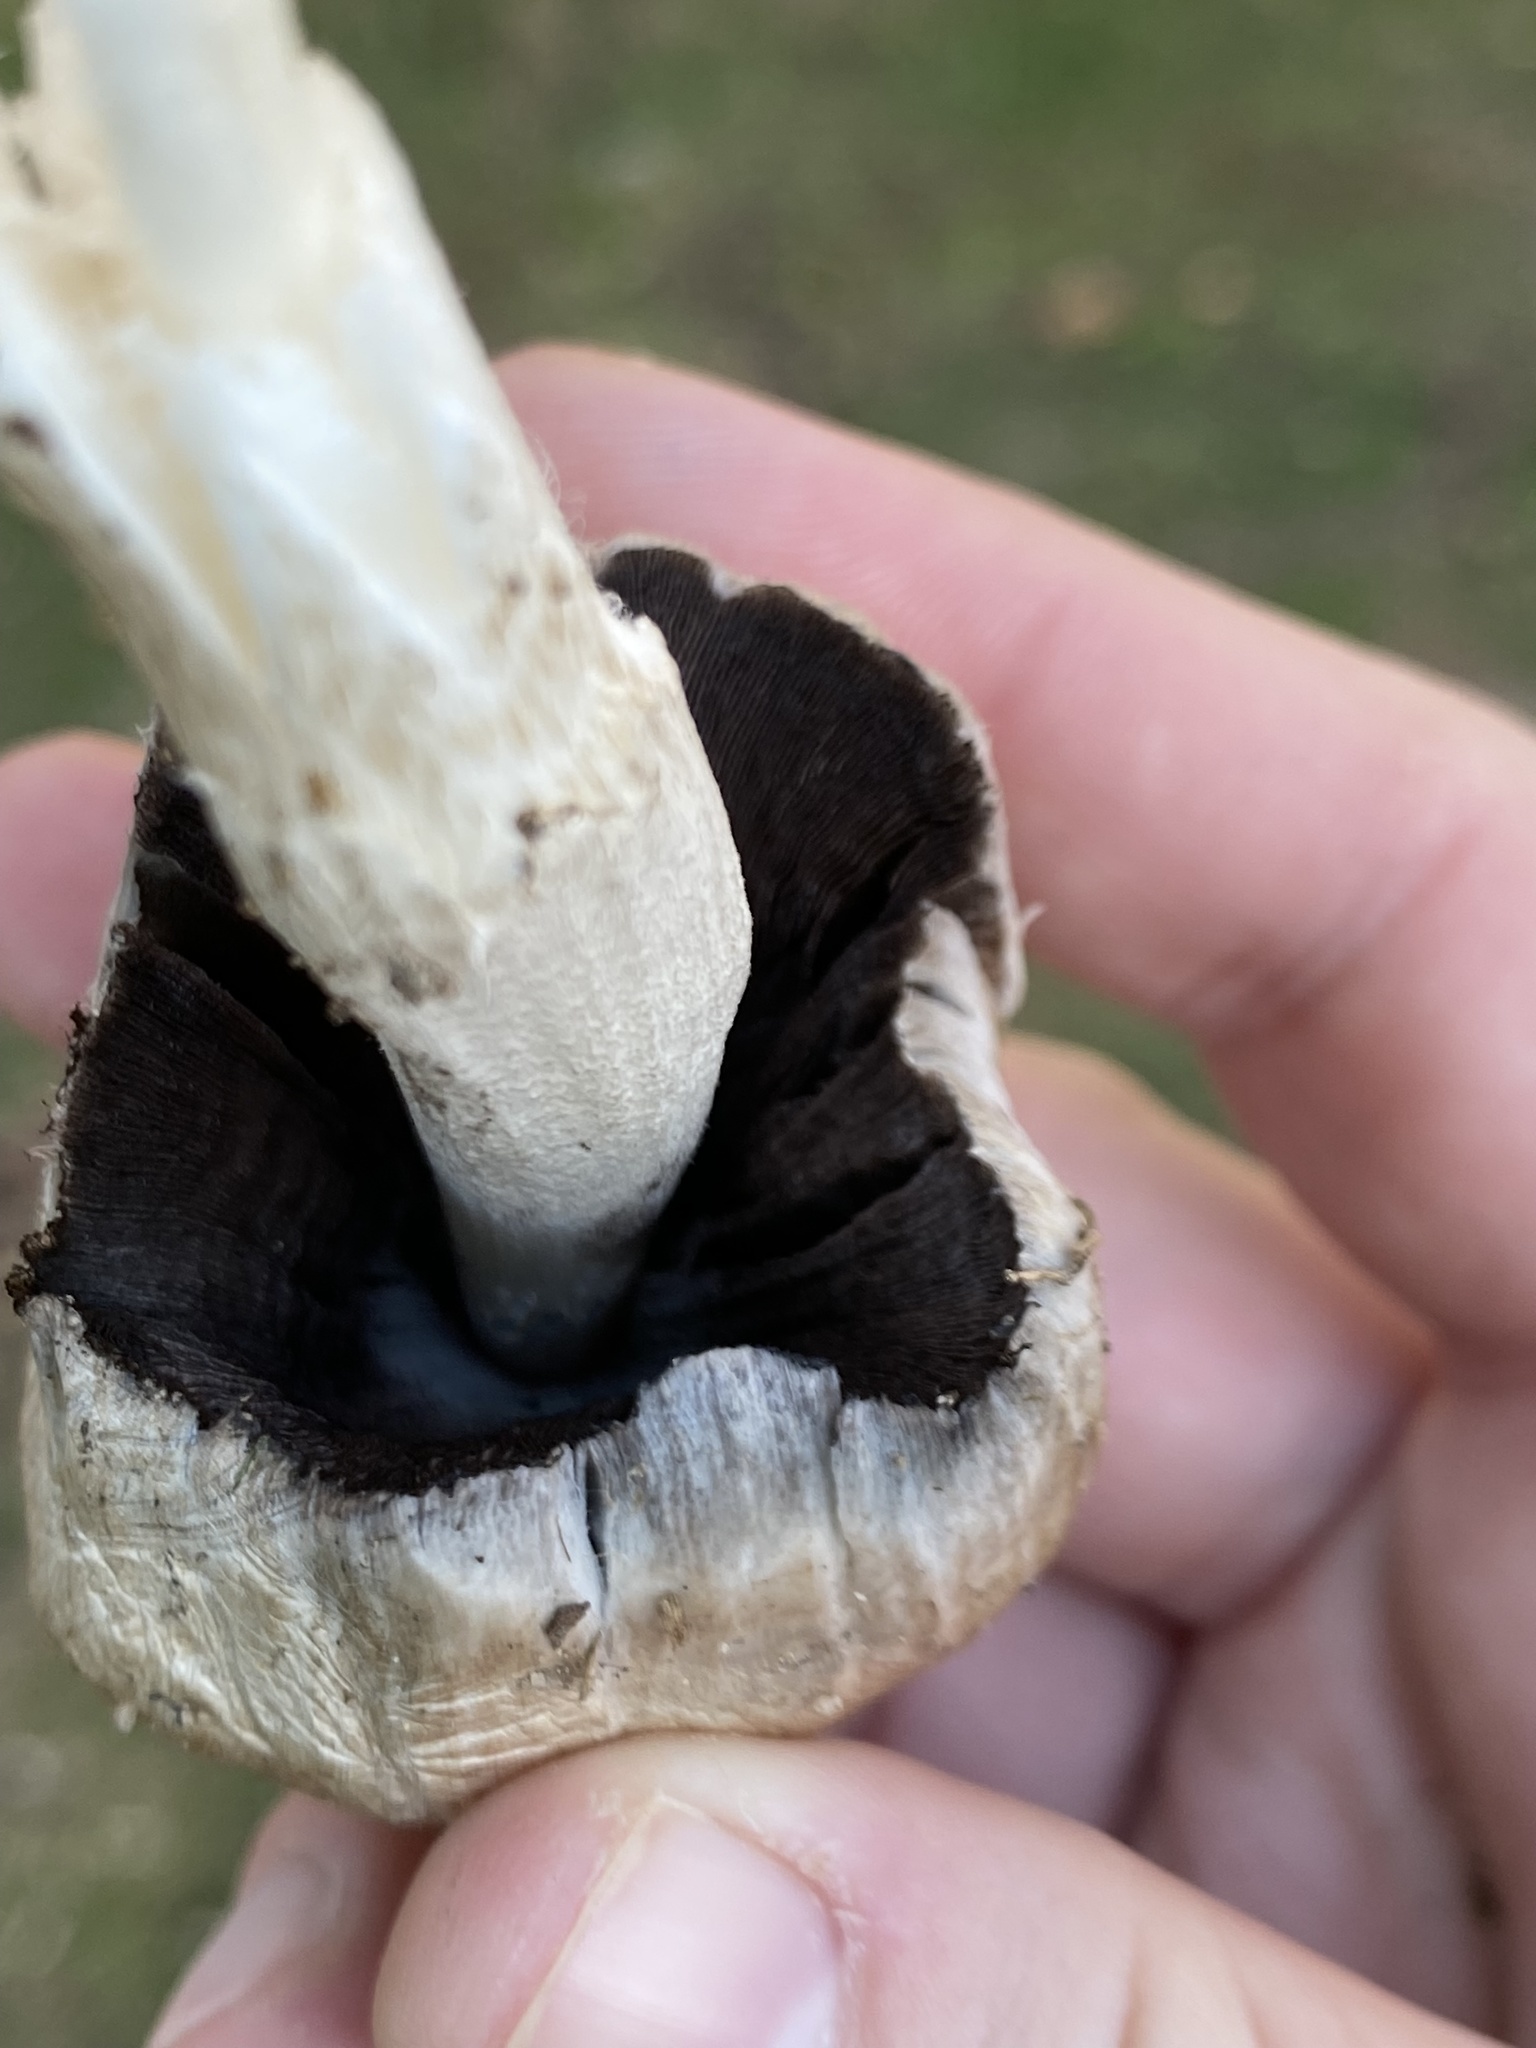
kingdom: Fungi
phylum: Basidiomycota
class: Agaricomycetes
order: Agaricales
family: Psathyrellaceae
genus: Coprinopsis
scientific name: Coprinopsis atramentaria
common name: Common ink-cap
